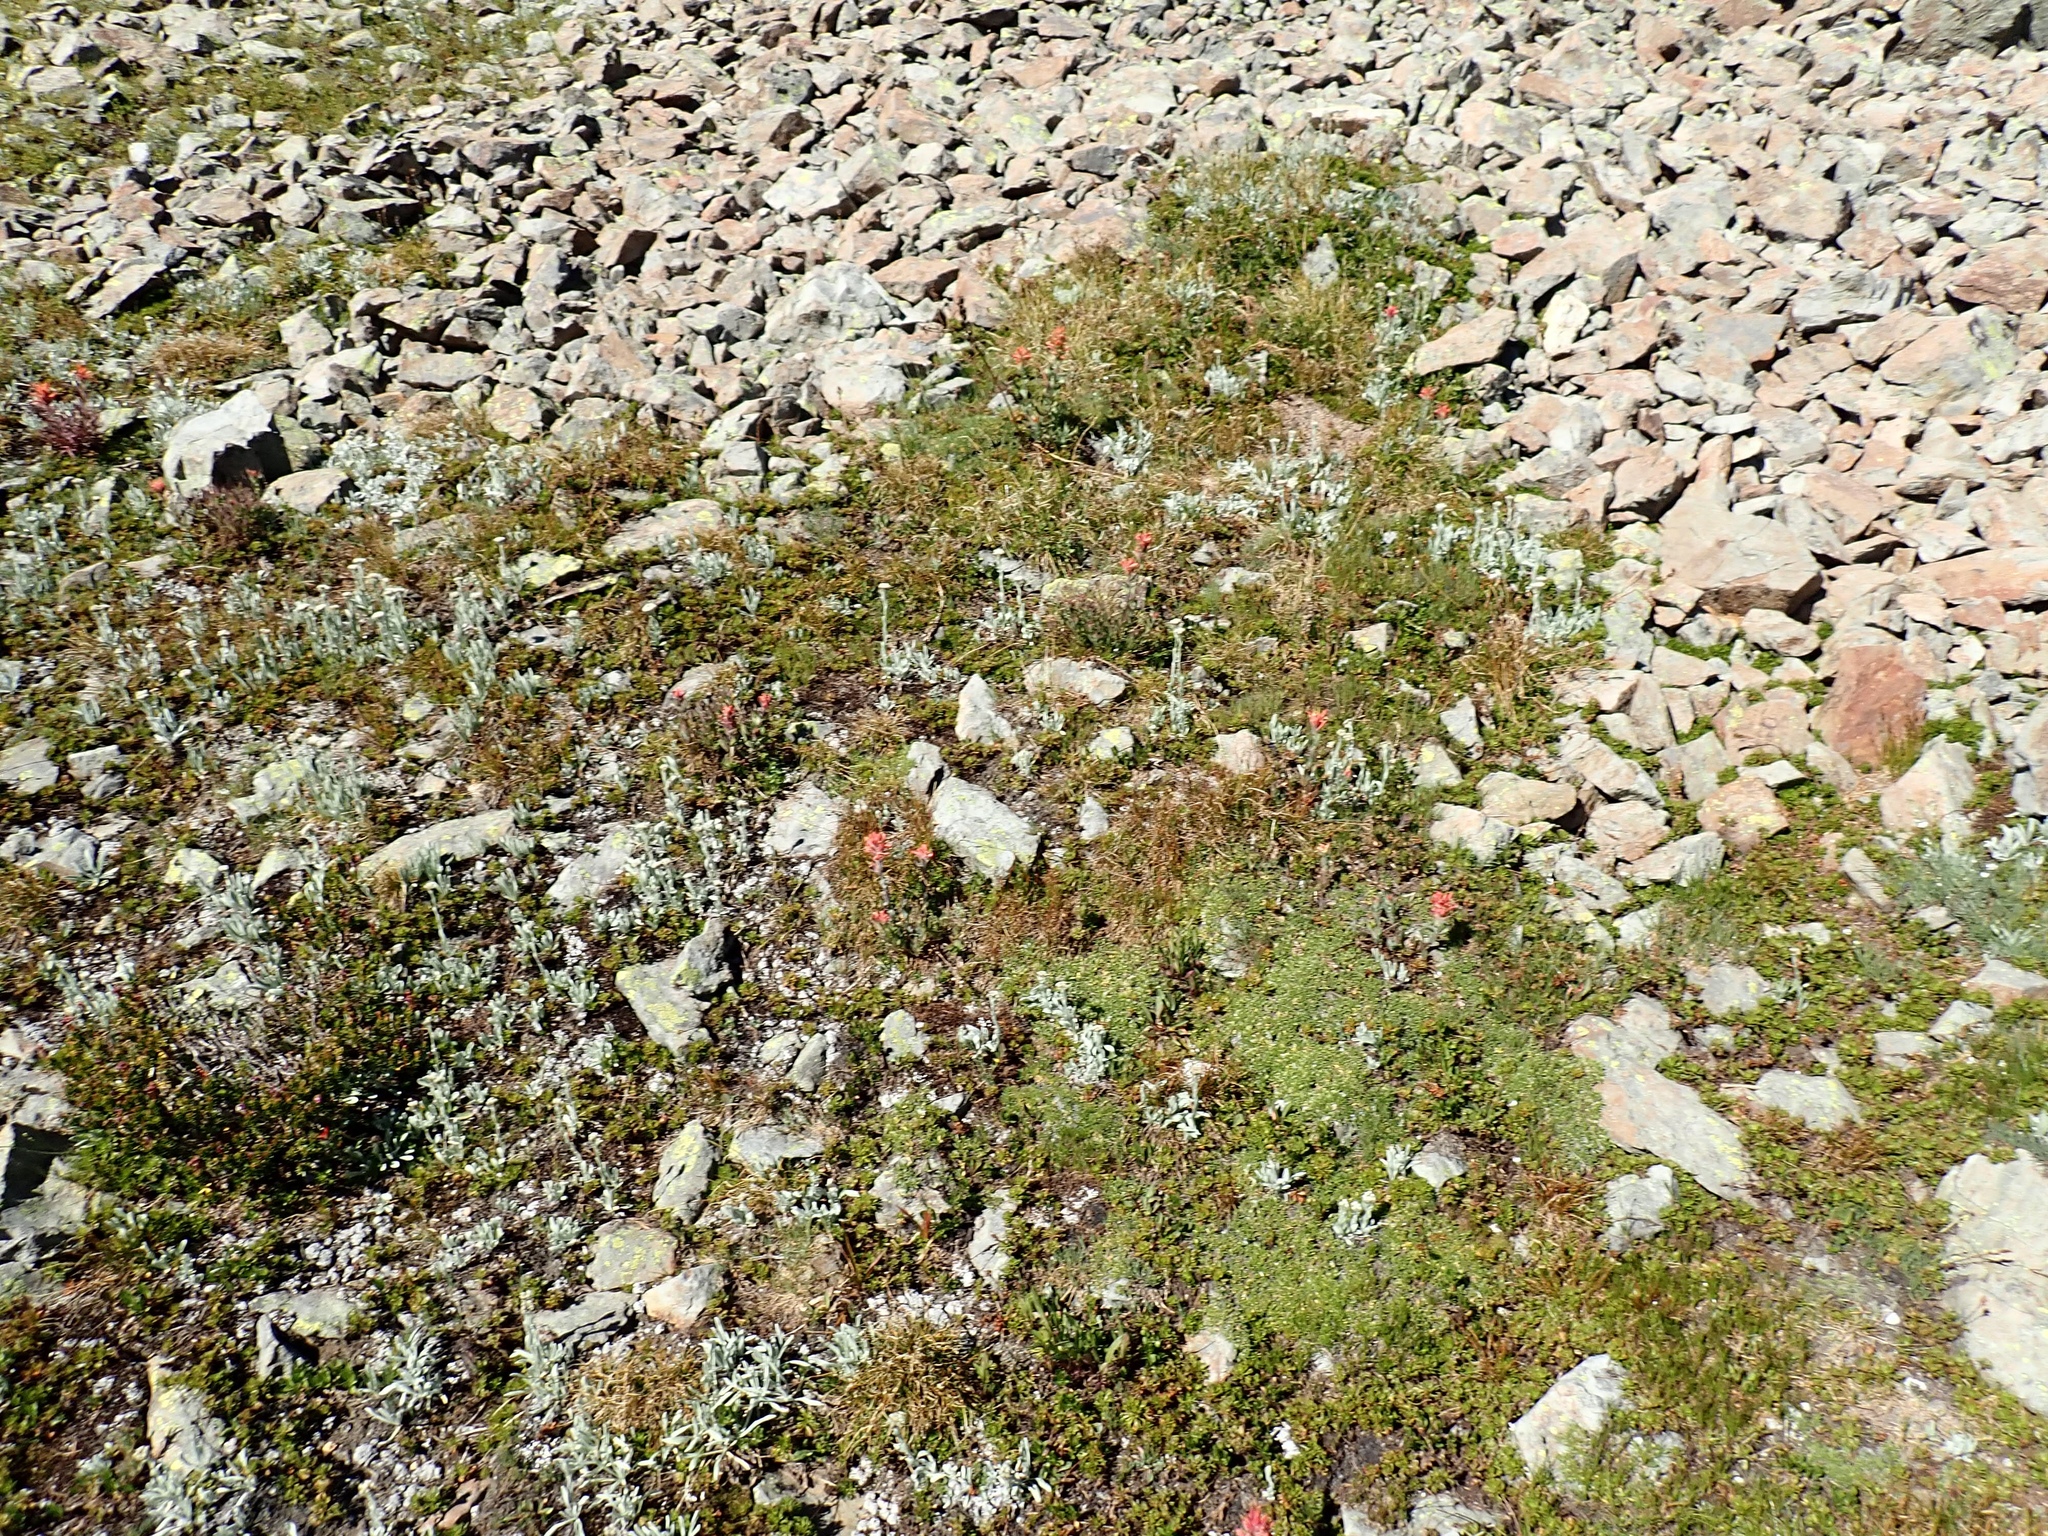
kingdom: Plantae
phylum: Tracheophyta
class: Magnoliopsida
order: Lamiales
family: Orobanchaceae
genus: Castilleja
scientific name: Castilleja elmeri
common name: Elmer's paintbrush
